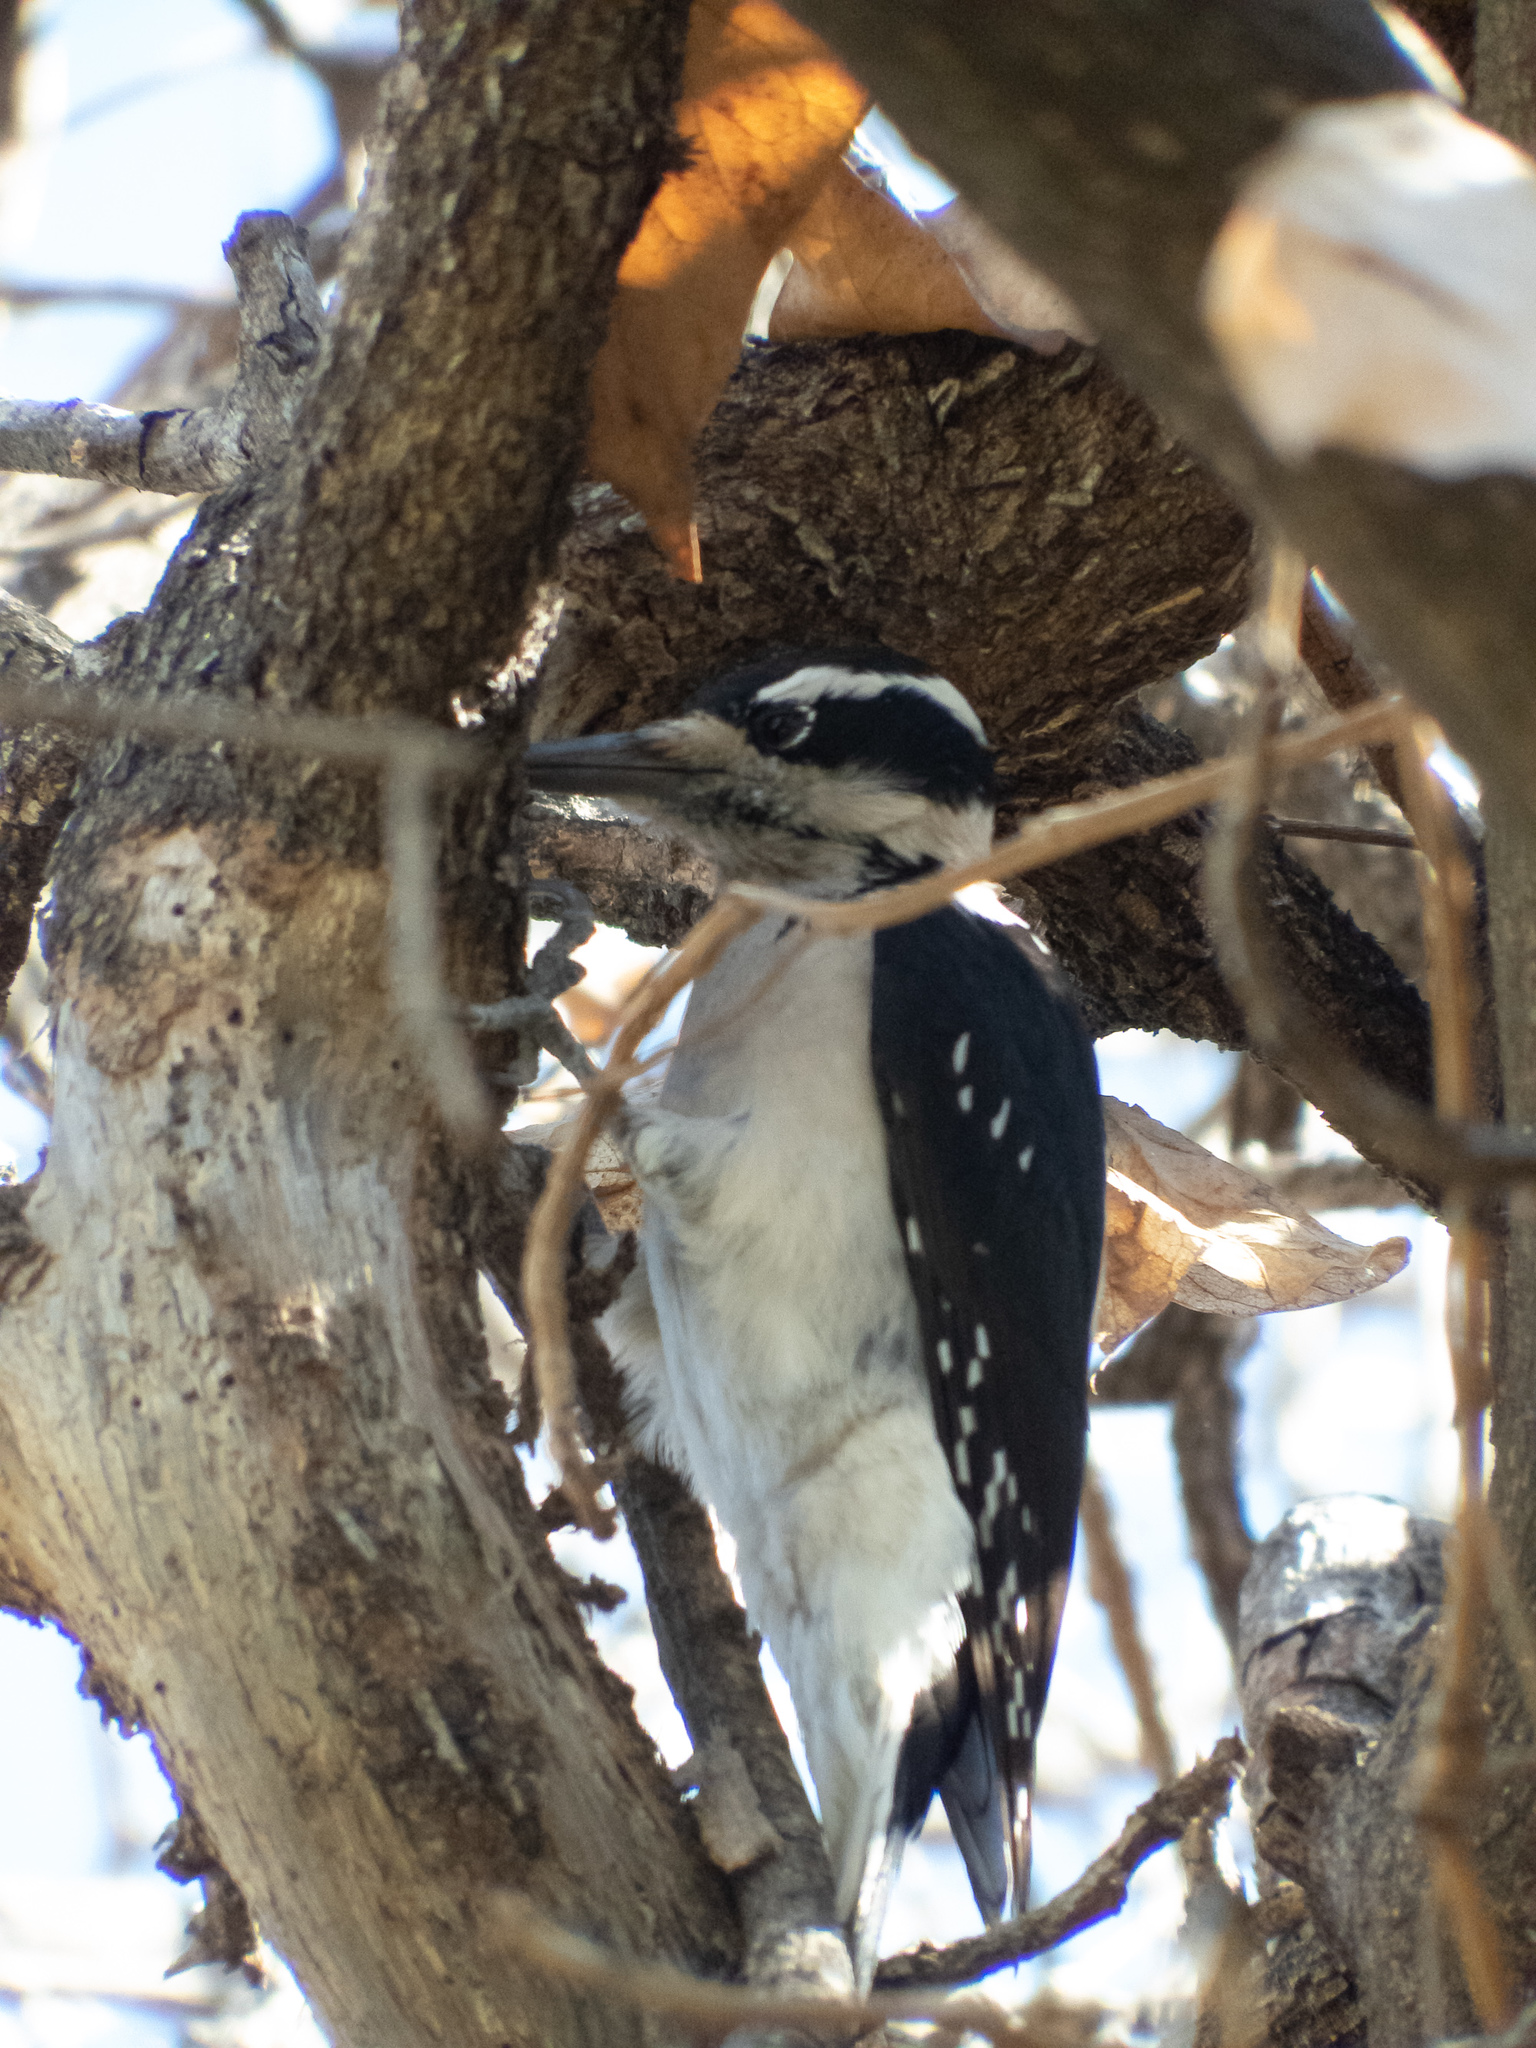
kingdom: Animalia
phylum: Chordata
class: Aves
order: Piciformes
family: Picidae
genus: Leuconotopicus
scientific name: Leuconotopicus villosus
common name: Hairy woodpecker
